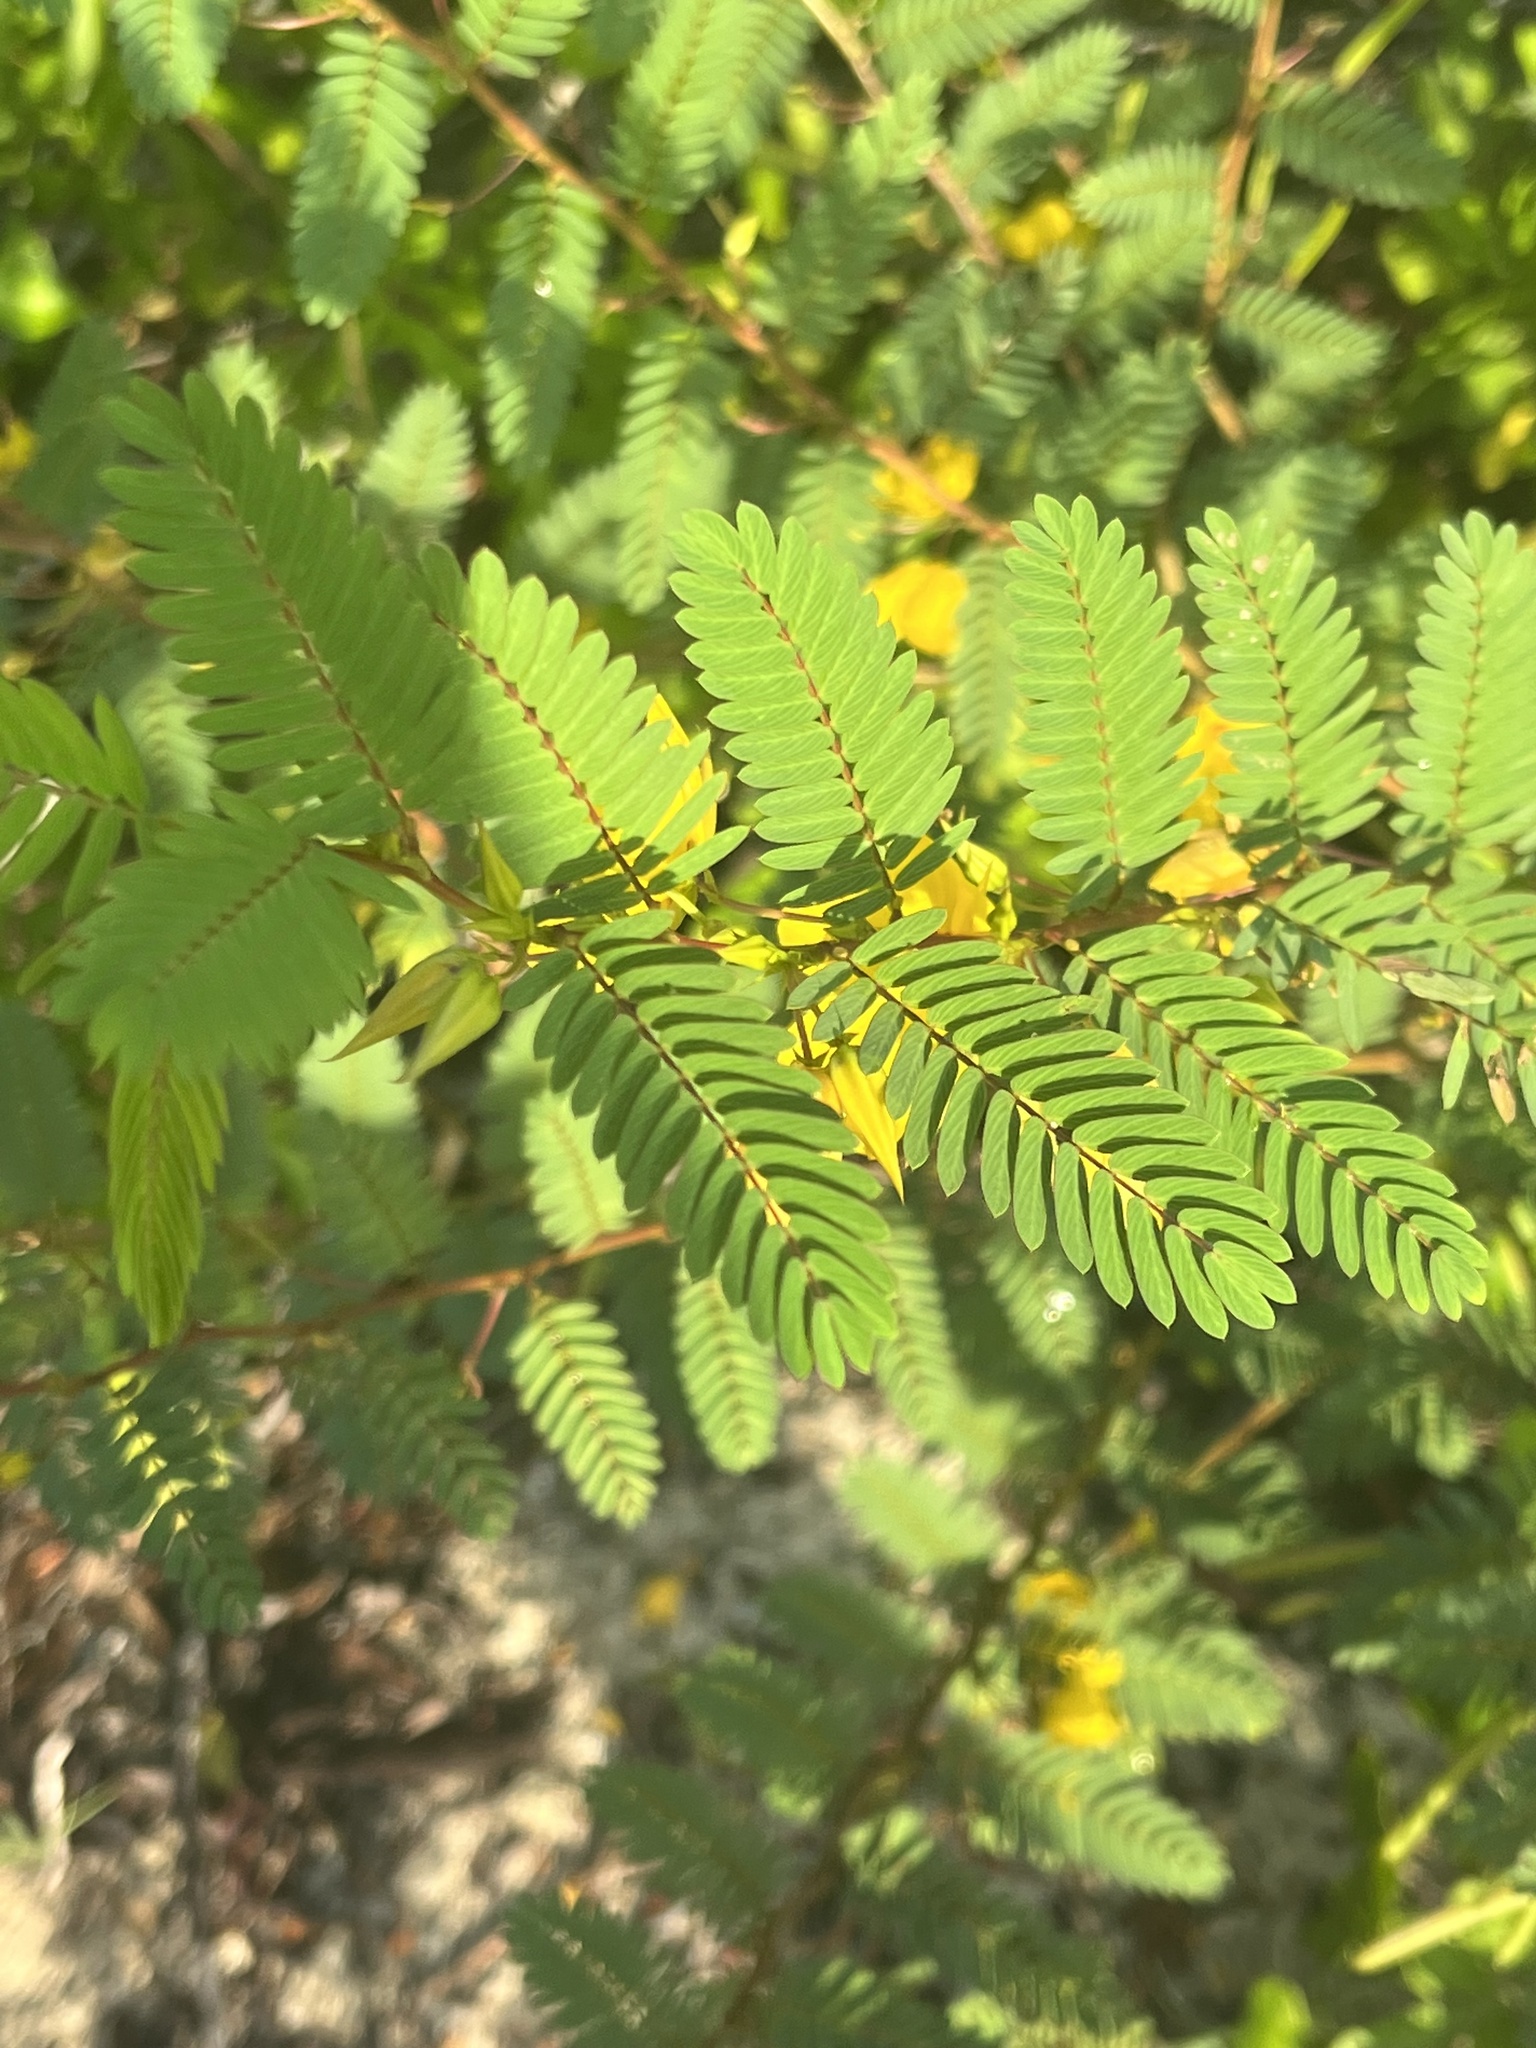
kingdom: Plantae
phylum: Tracheophyta
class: Magnoliopsida
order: Fabales
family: Fabaceae
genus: Chamaecrista
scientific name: Chamaecrista fasciculata
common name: Golden cassia
